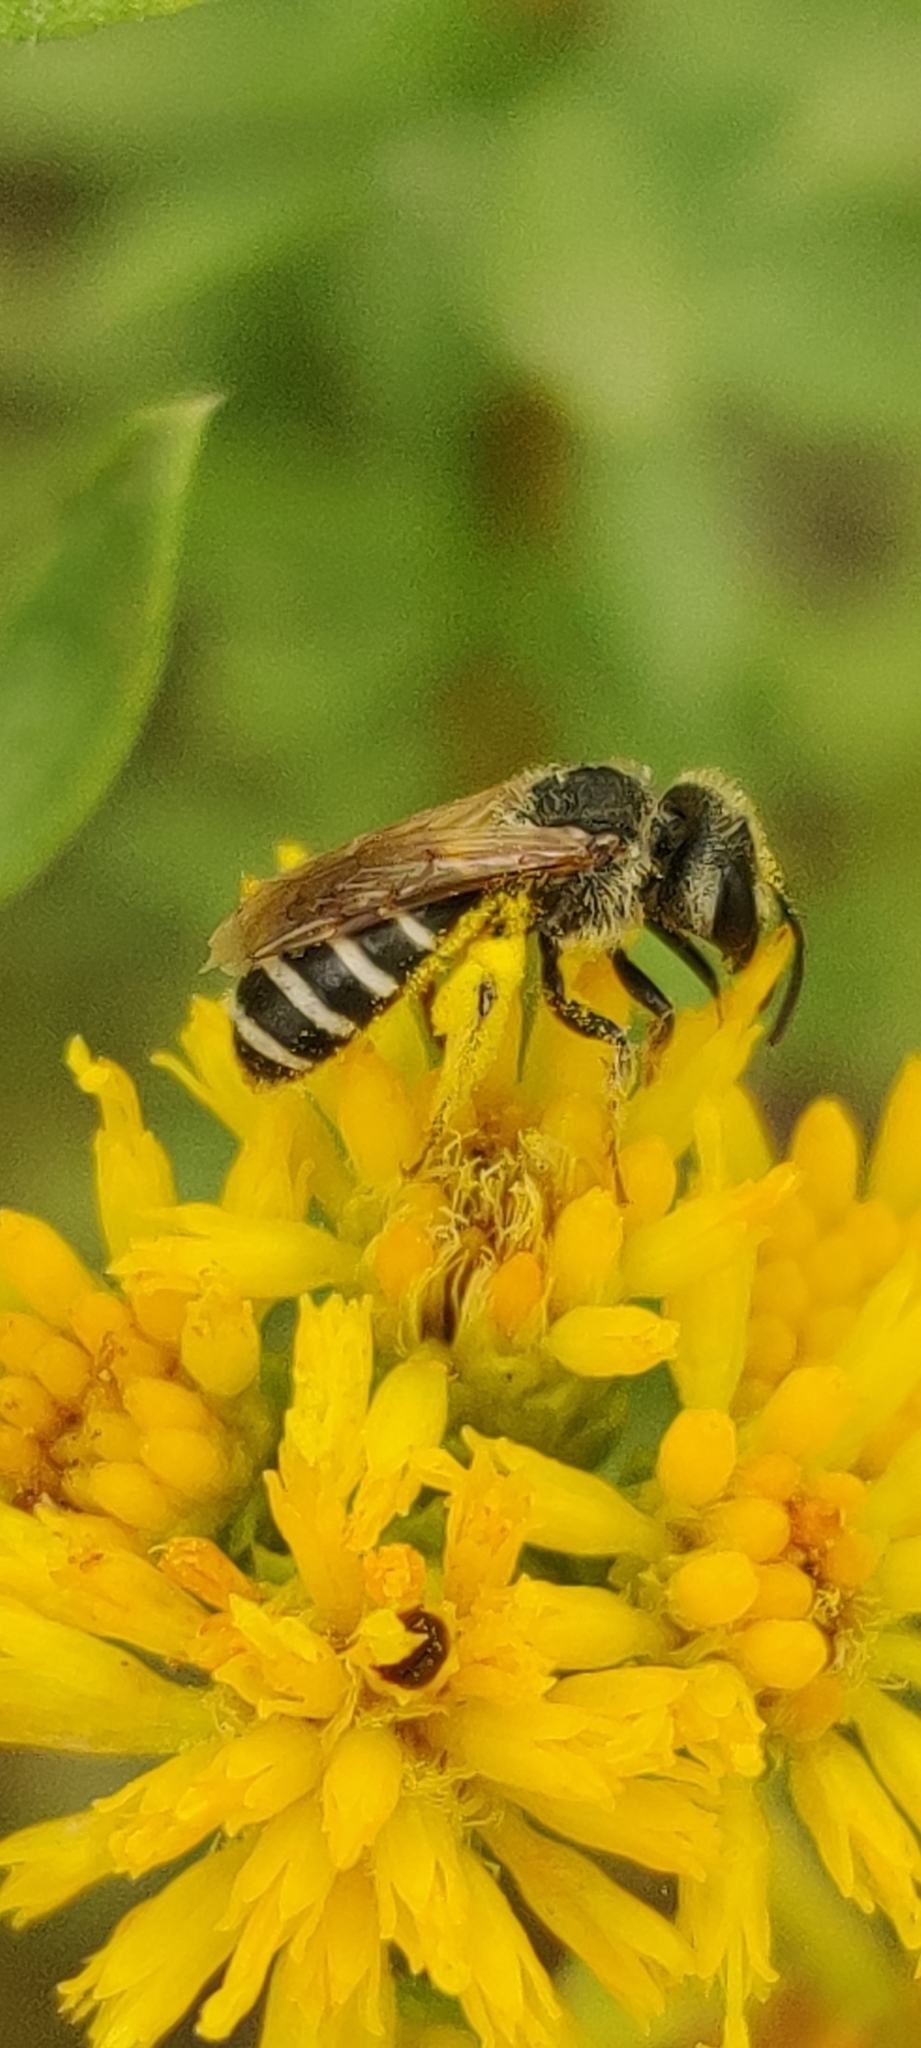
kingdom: Animalia
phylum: Arthropoda
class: Insecta
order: Hymenoptera
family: Halictidae
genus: Halictus
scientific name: Halictus ligatus
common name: Ligated furrow bee
